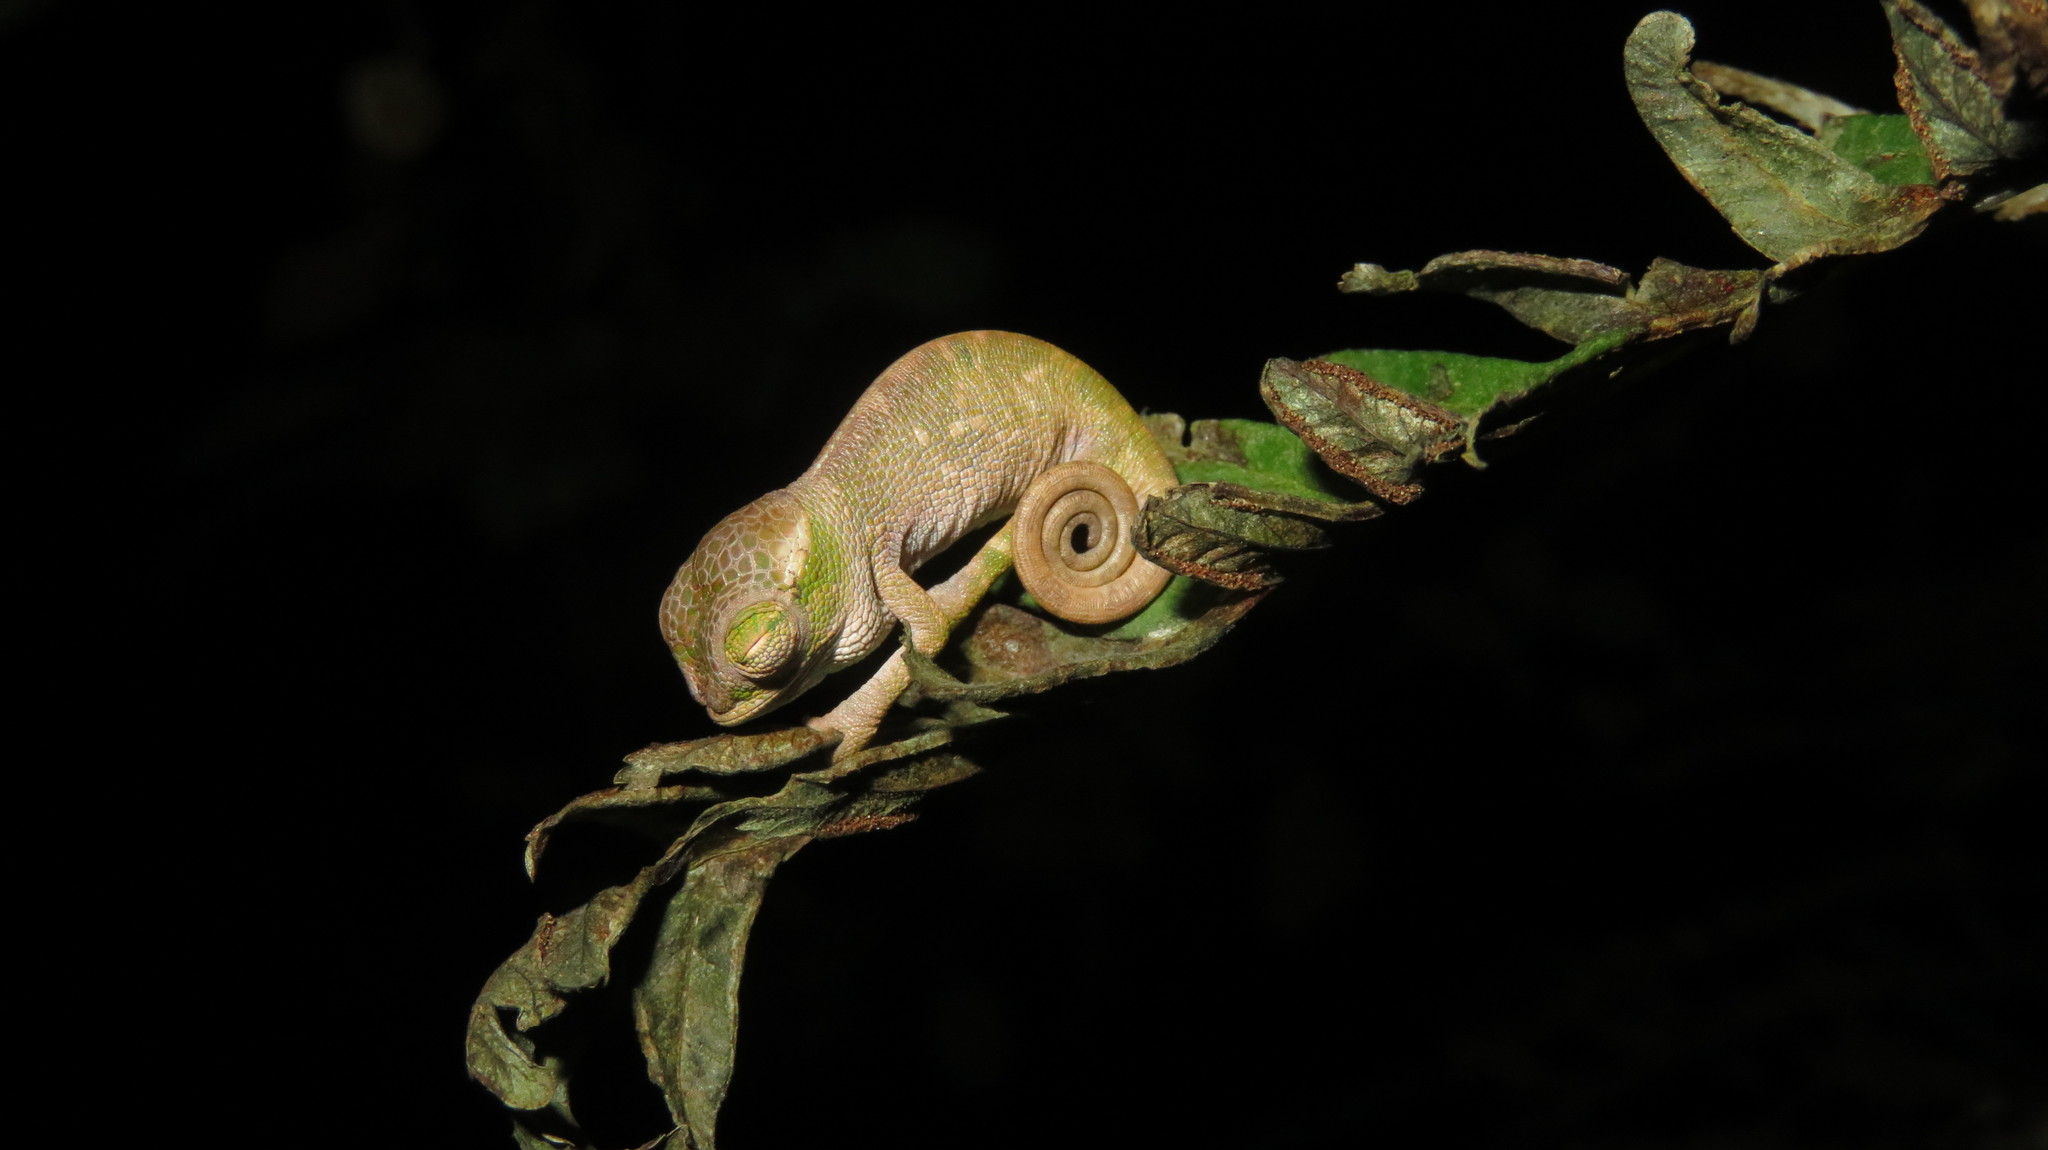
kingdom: Animalia
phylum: Chordata
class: Squamata
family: Chamaeleonidae
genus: Kinyongia
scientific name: Kinyongia multituberculata
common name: West usambara blade-horned chameleon
